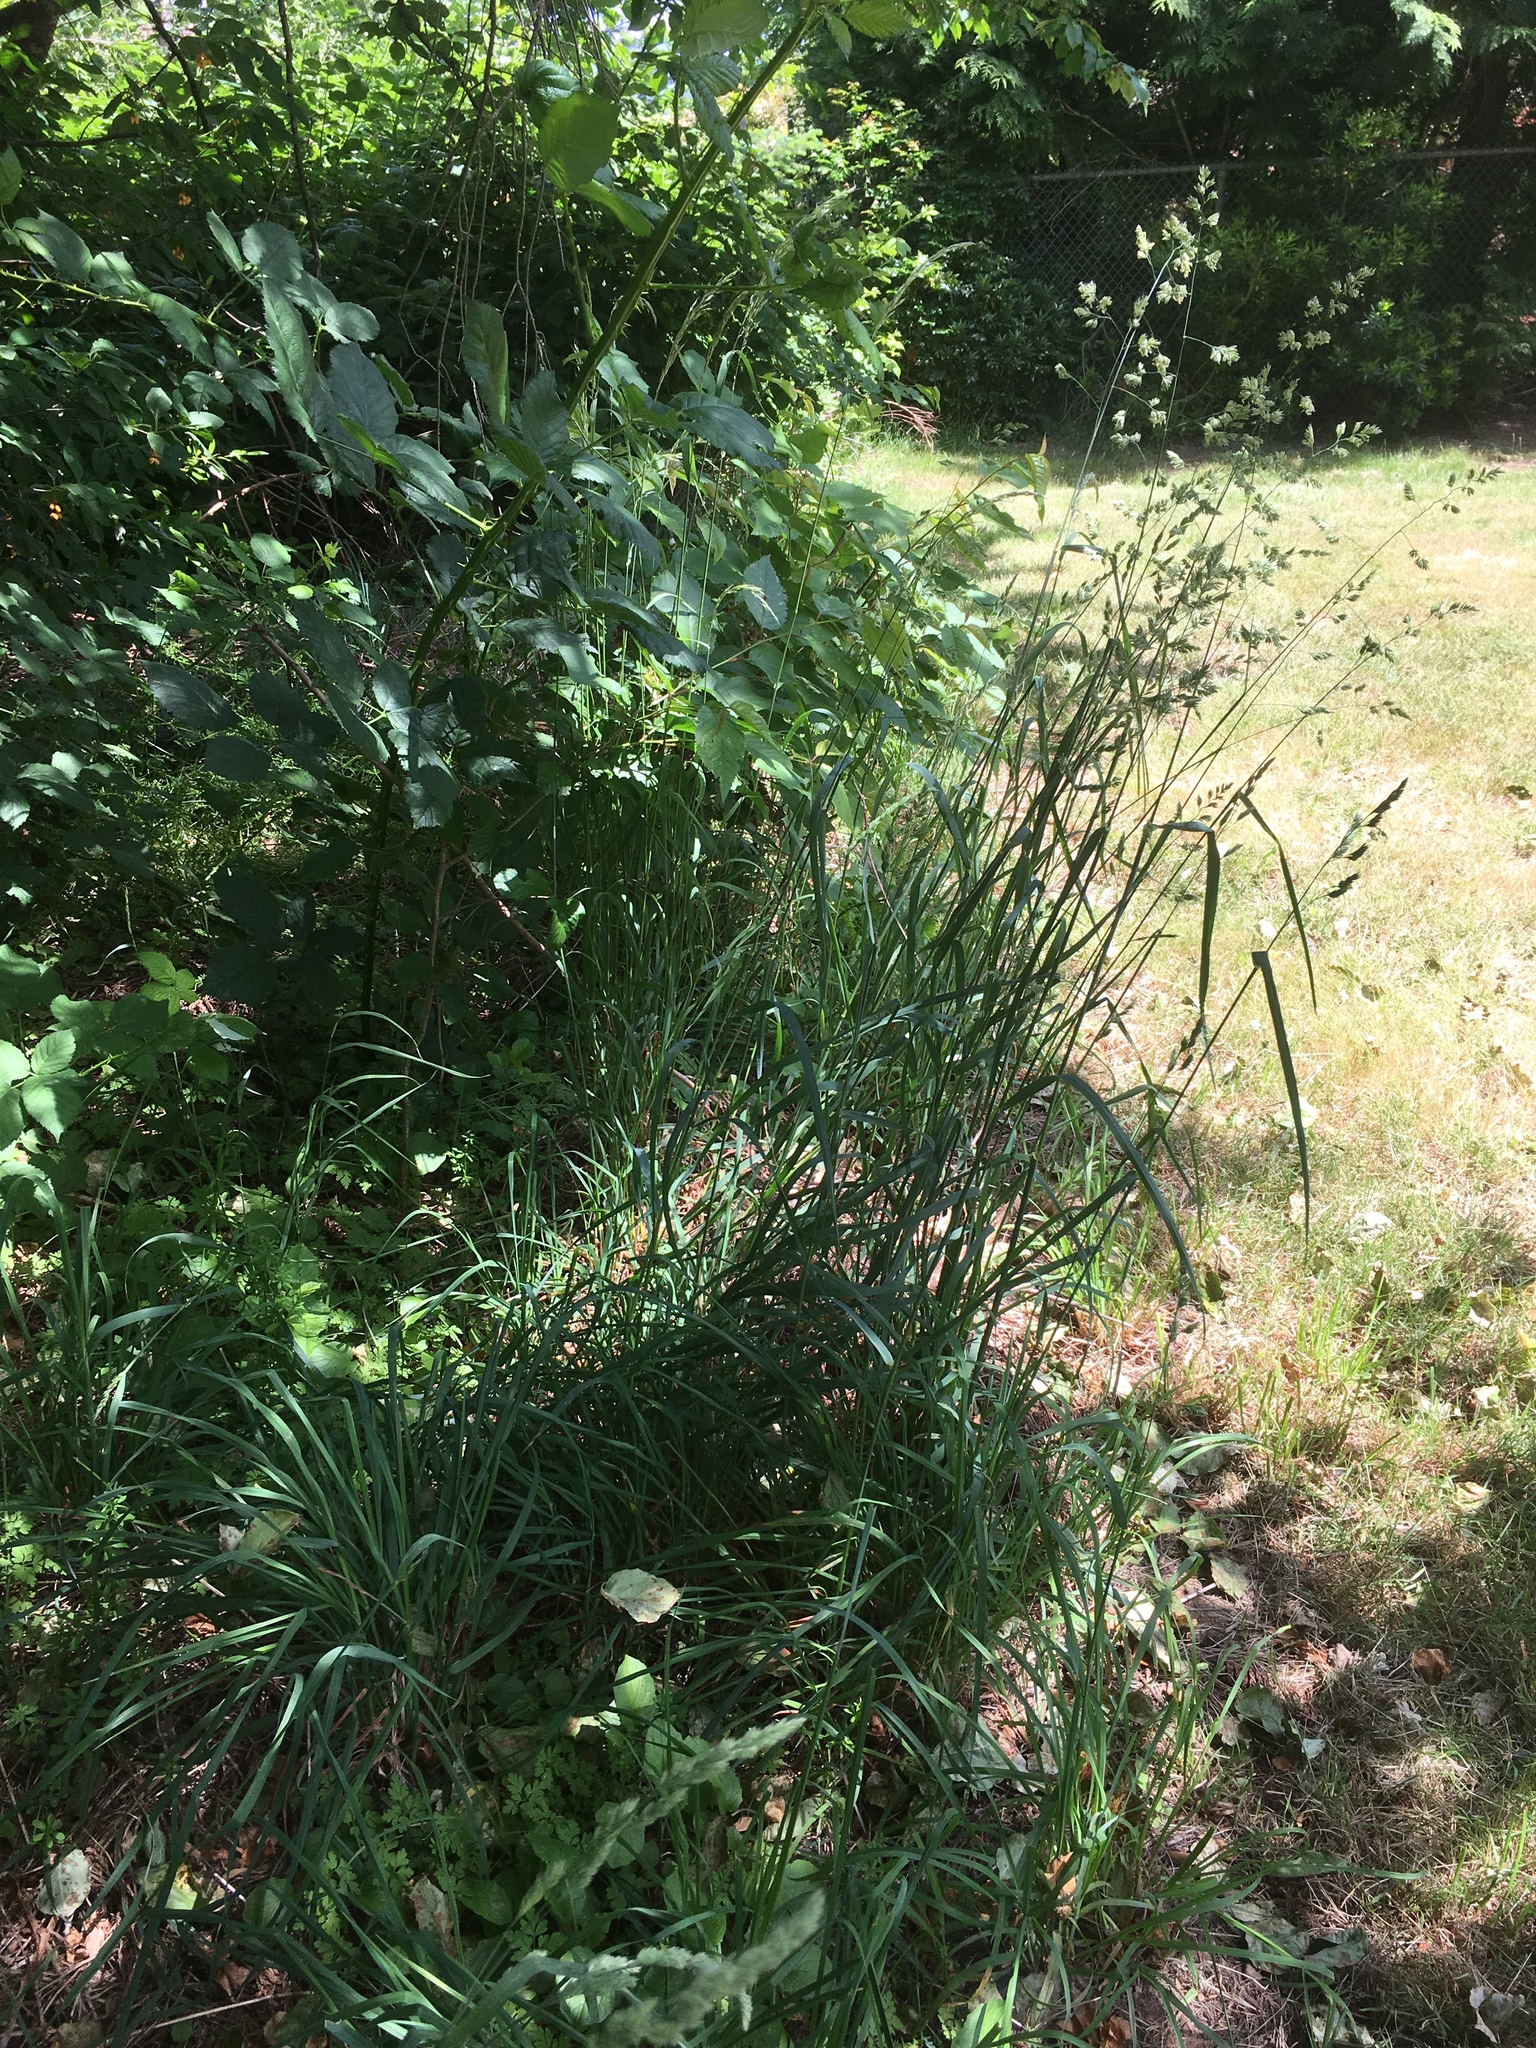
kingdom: Plantae
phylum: Tracheophyta
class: Liliopsida
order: Poales
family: Poaceae
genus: Dactylis
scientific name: Dactylis glomerata
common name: Orchardgrass
